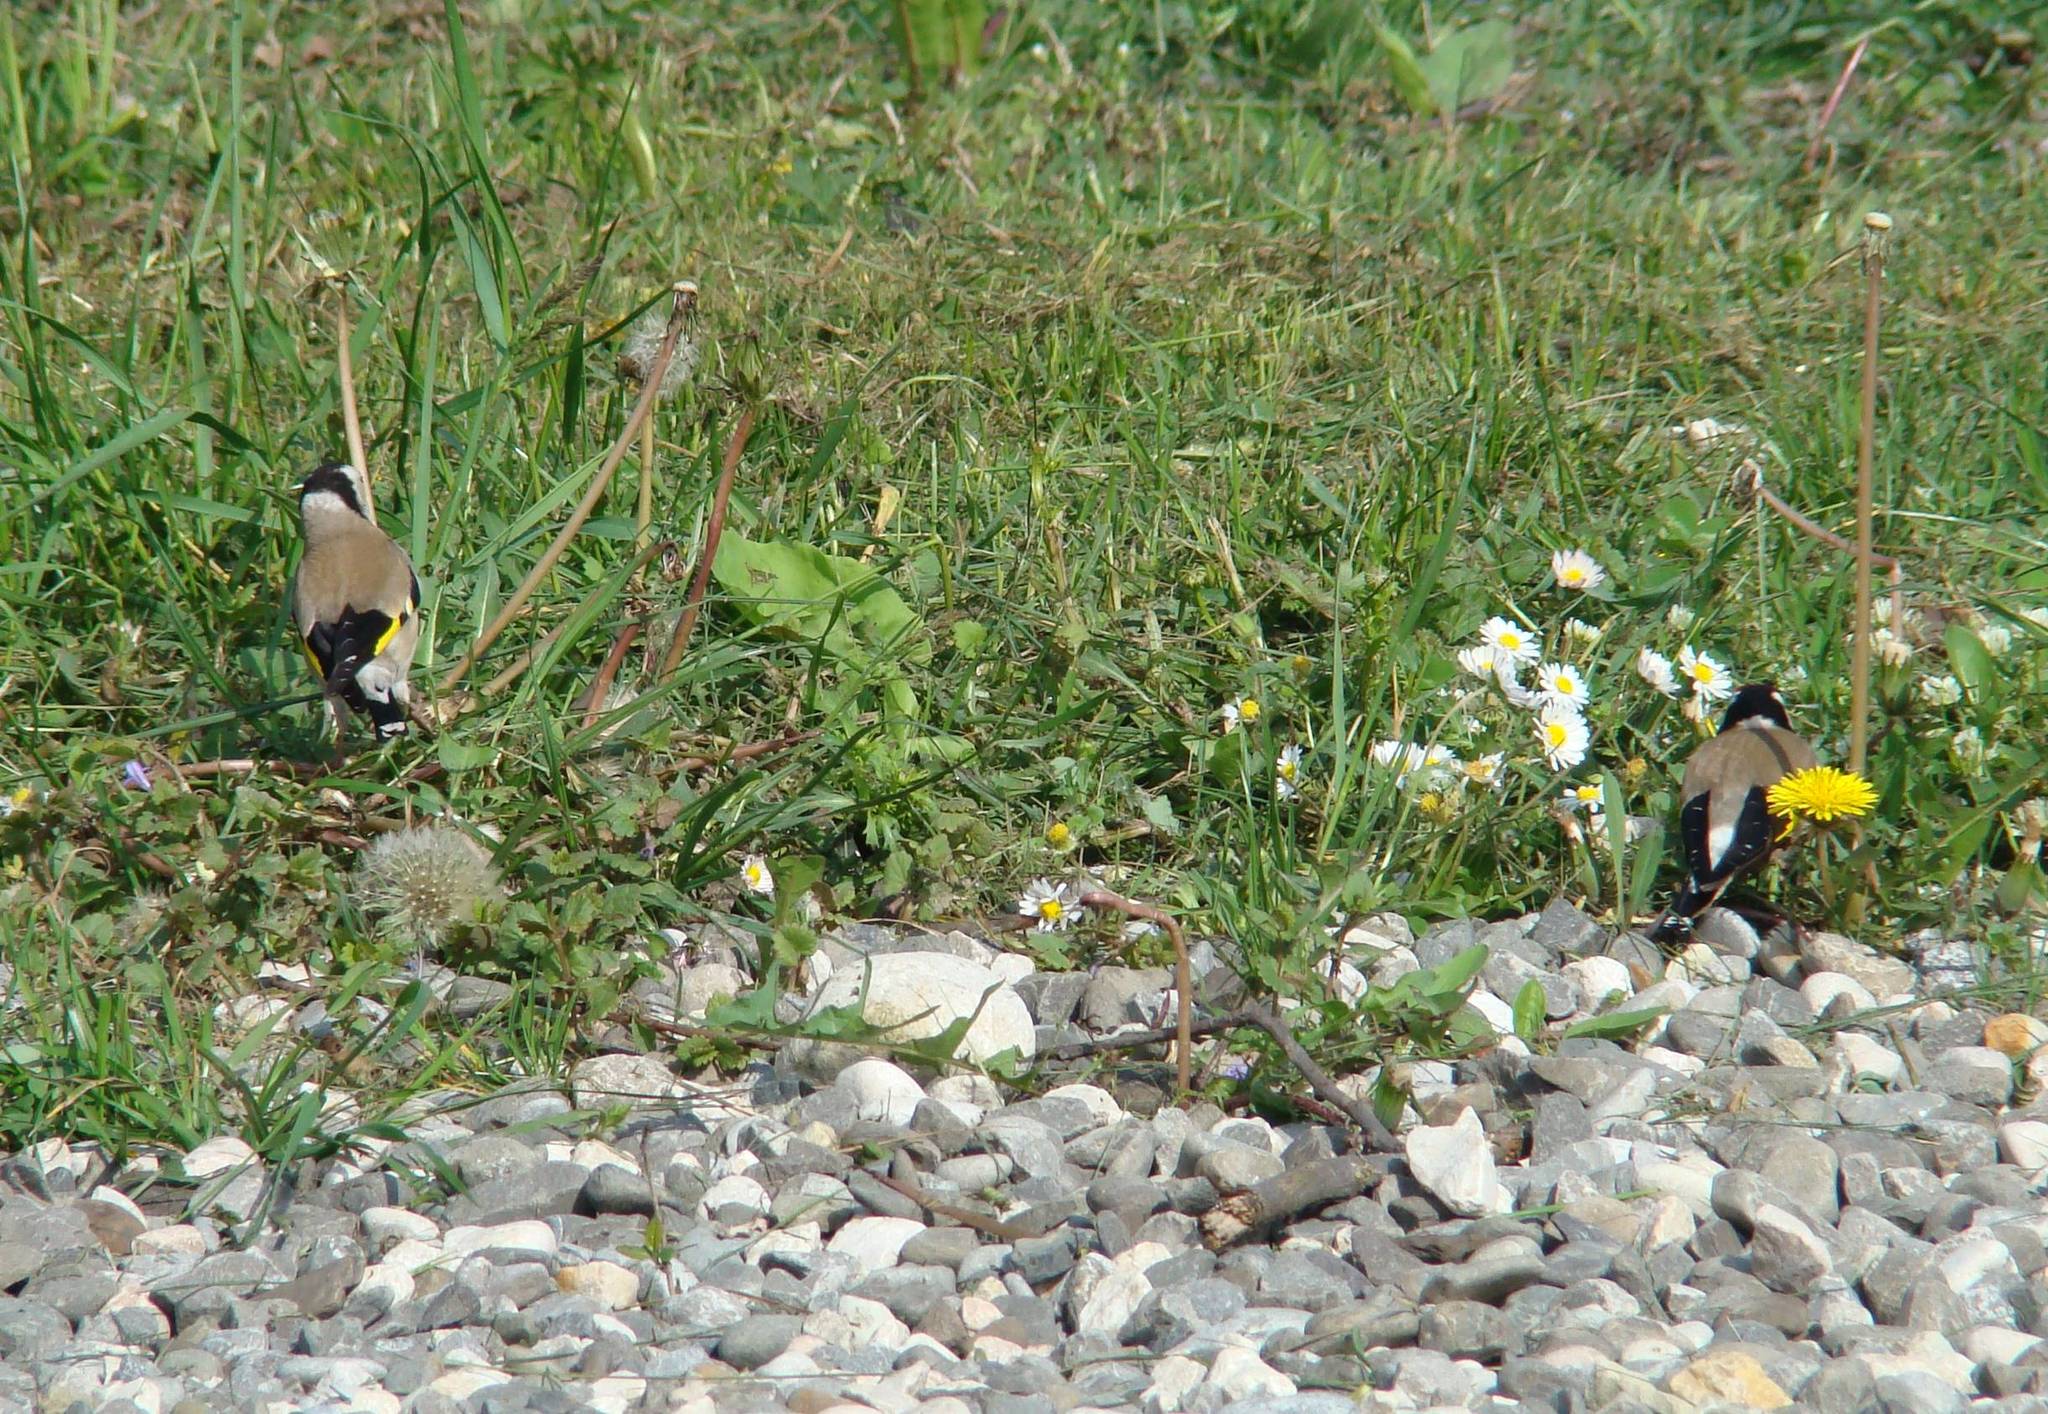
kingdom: Animalia
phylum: Chordata
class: Aves
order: Passeriformes
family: Fringillidae
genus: Carduelis
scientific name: Carduelis carduelis
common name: European goldfinch
